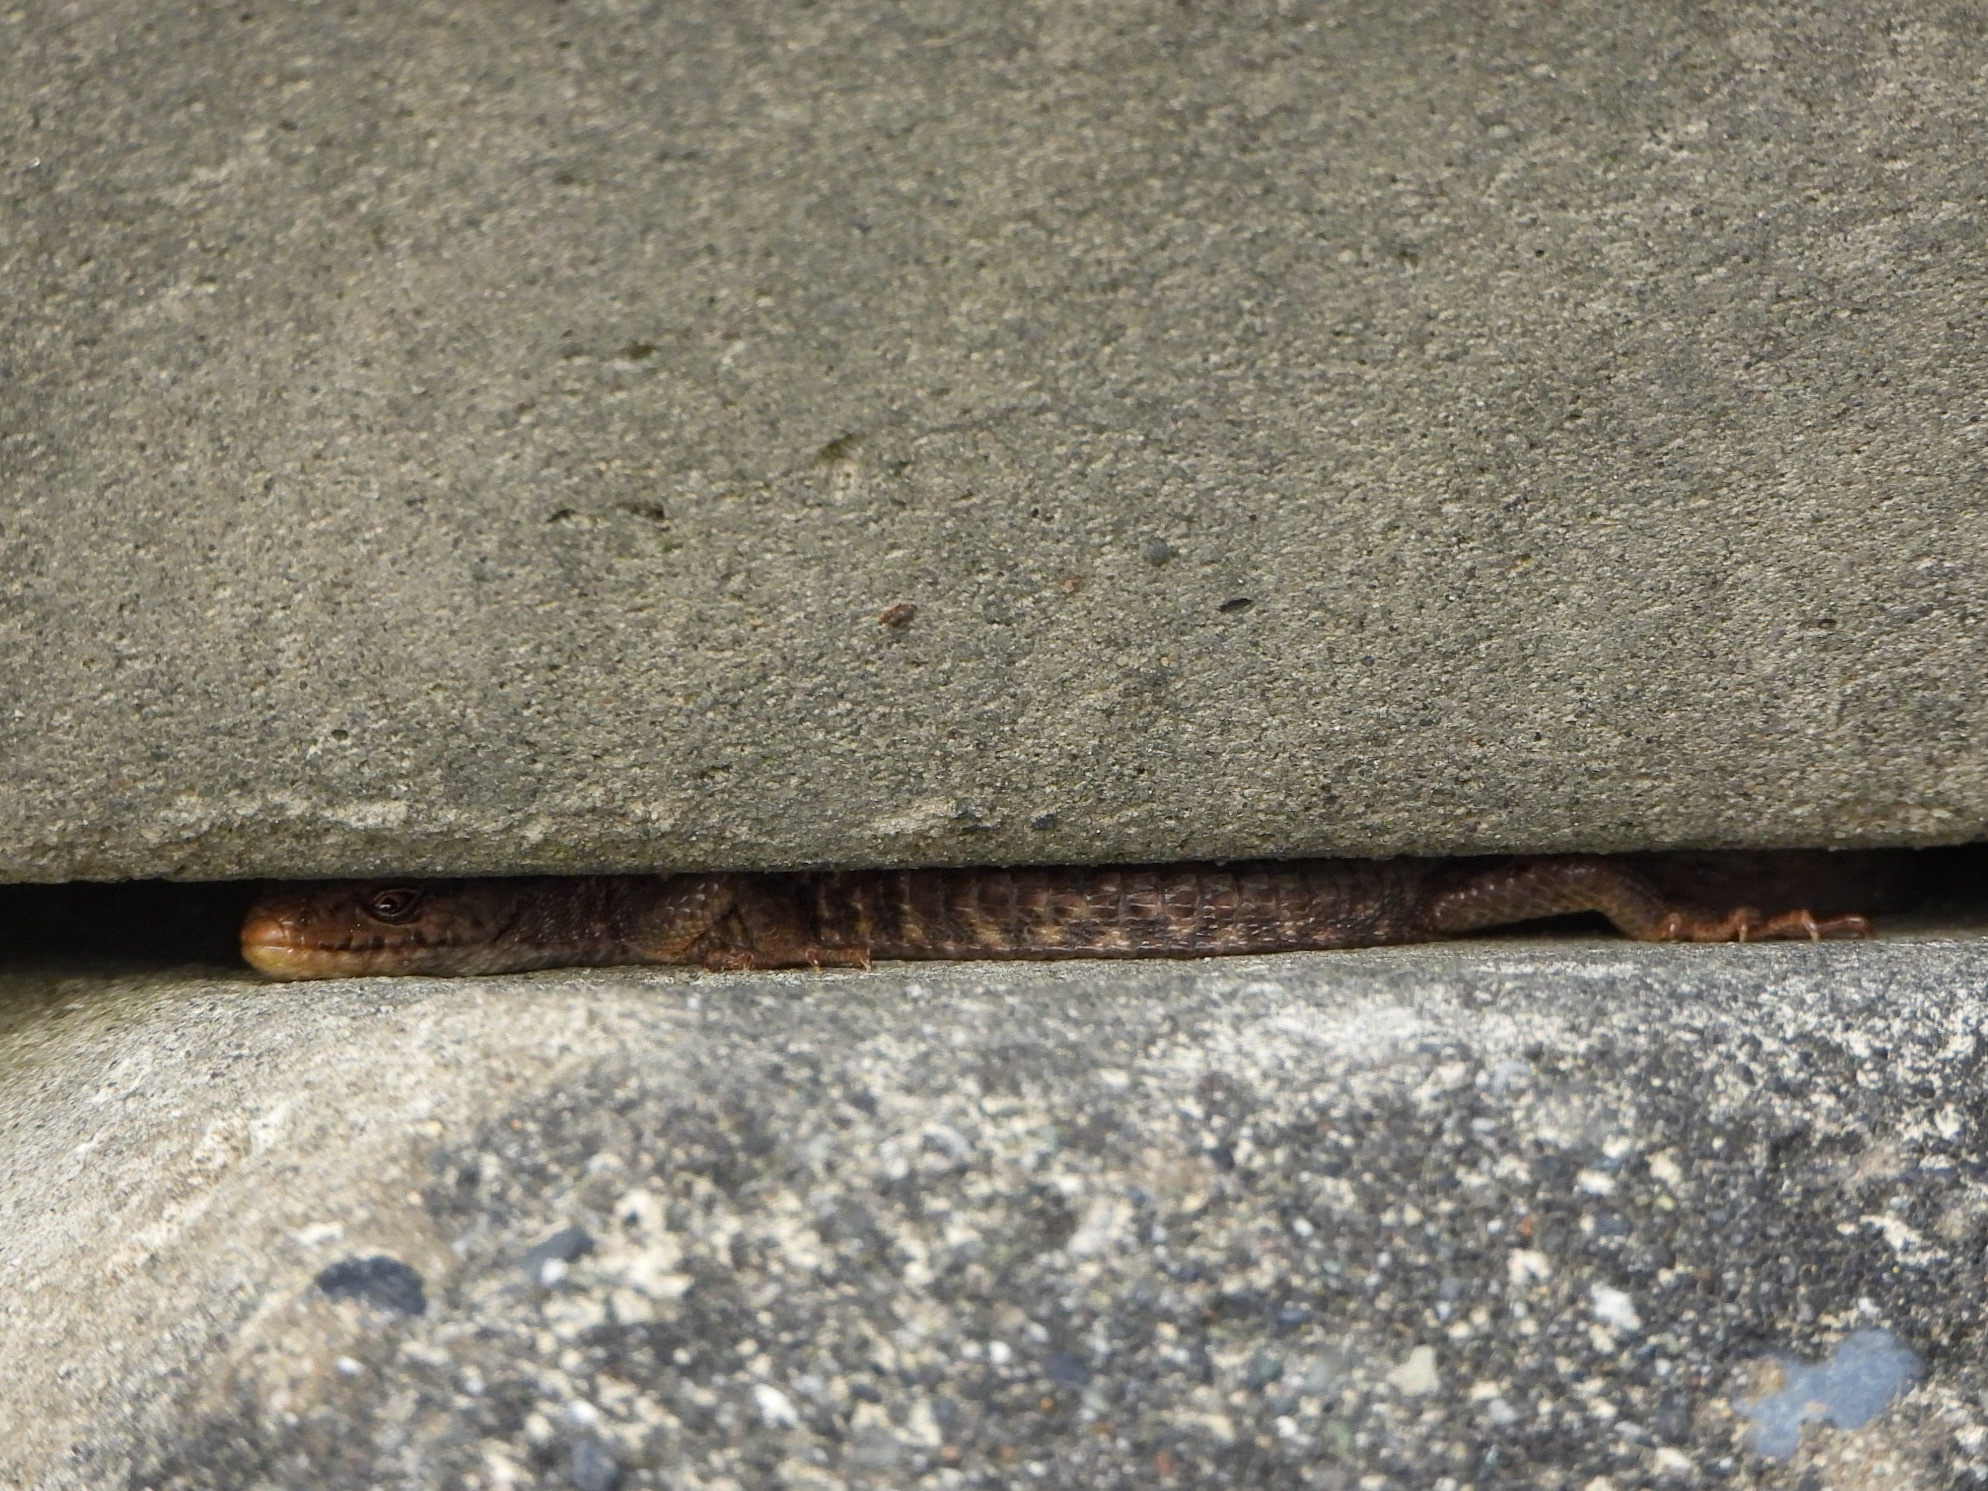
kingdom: Animalia
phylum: Chordata
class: Squamata
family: Anguidae
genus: Elgaria
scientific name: Elgaria coerulea
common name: Northern alligator lizard
